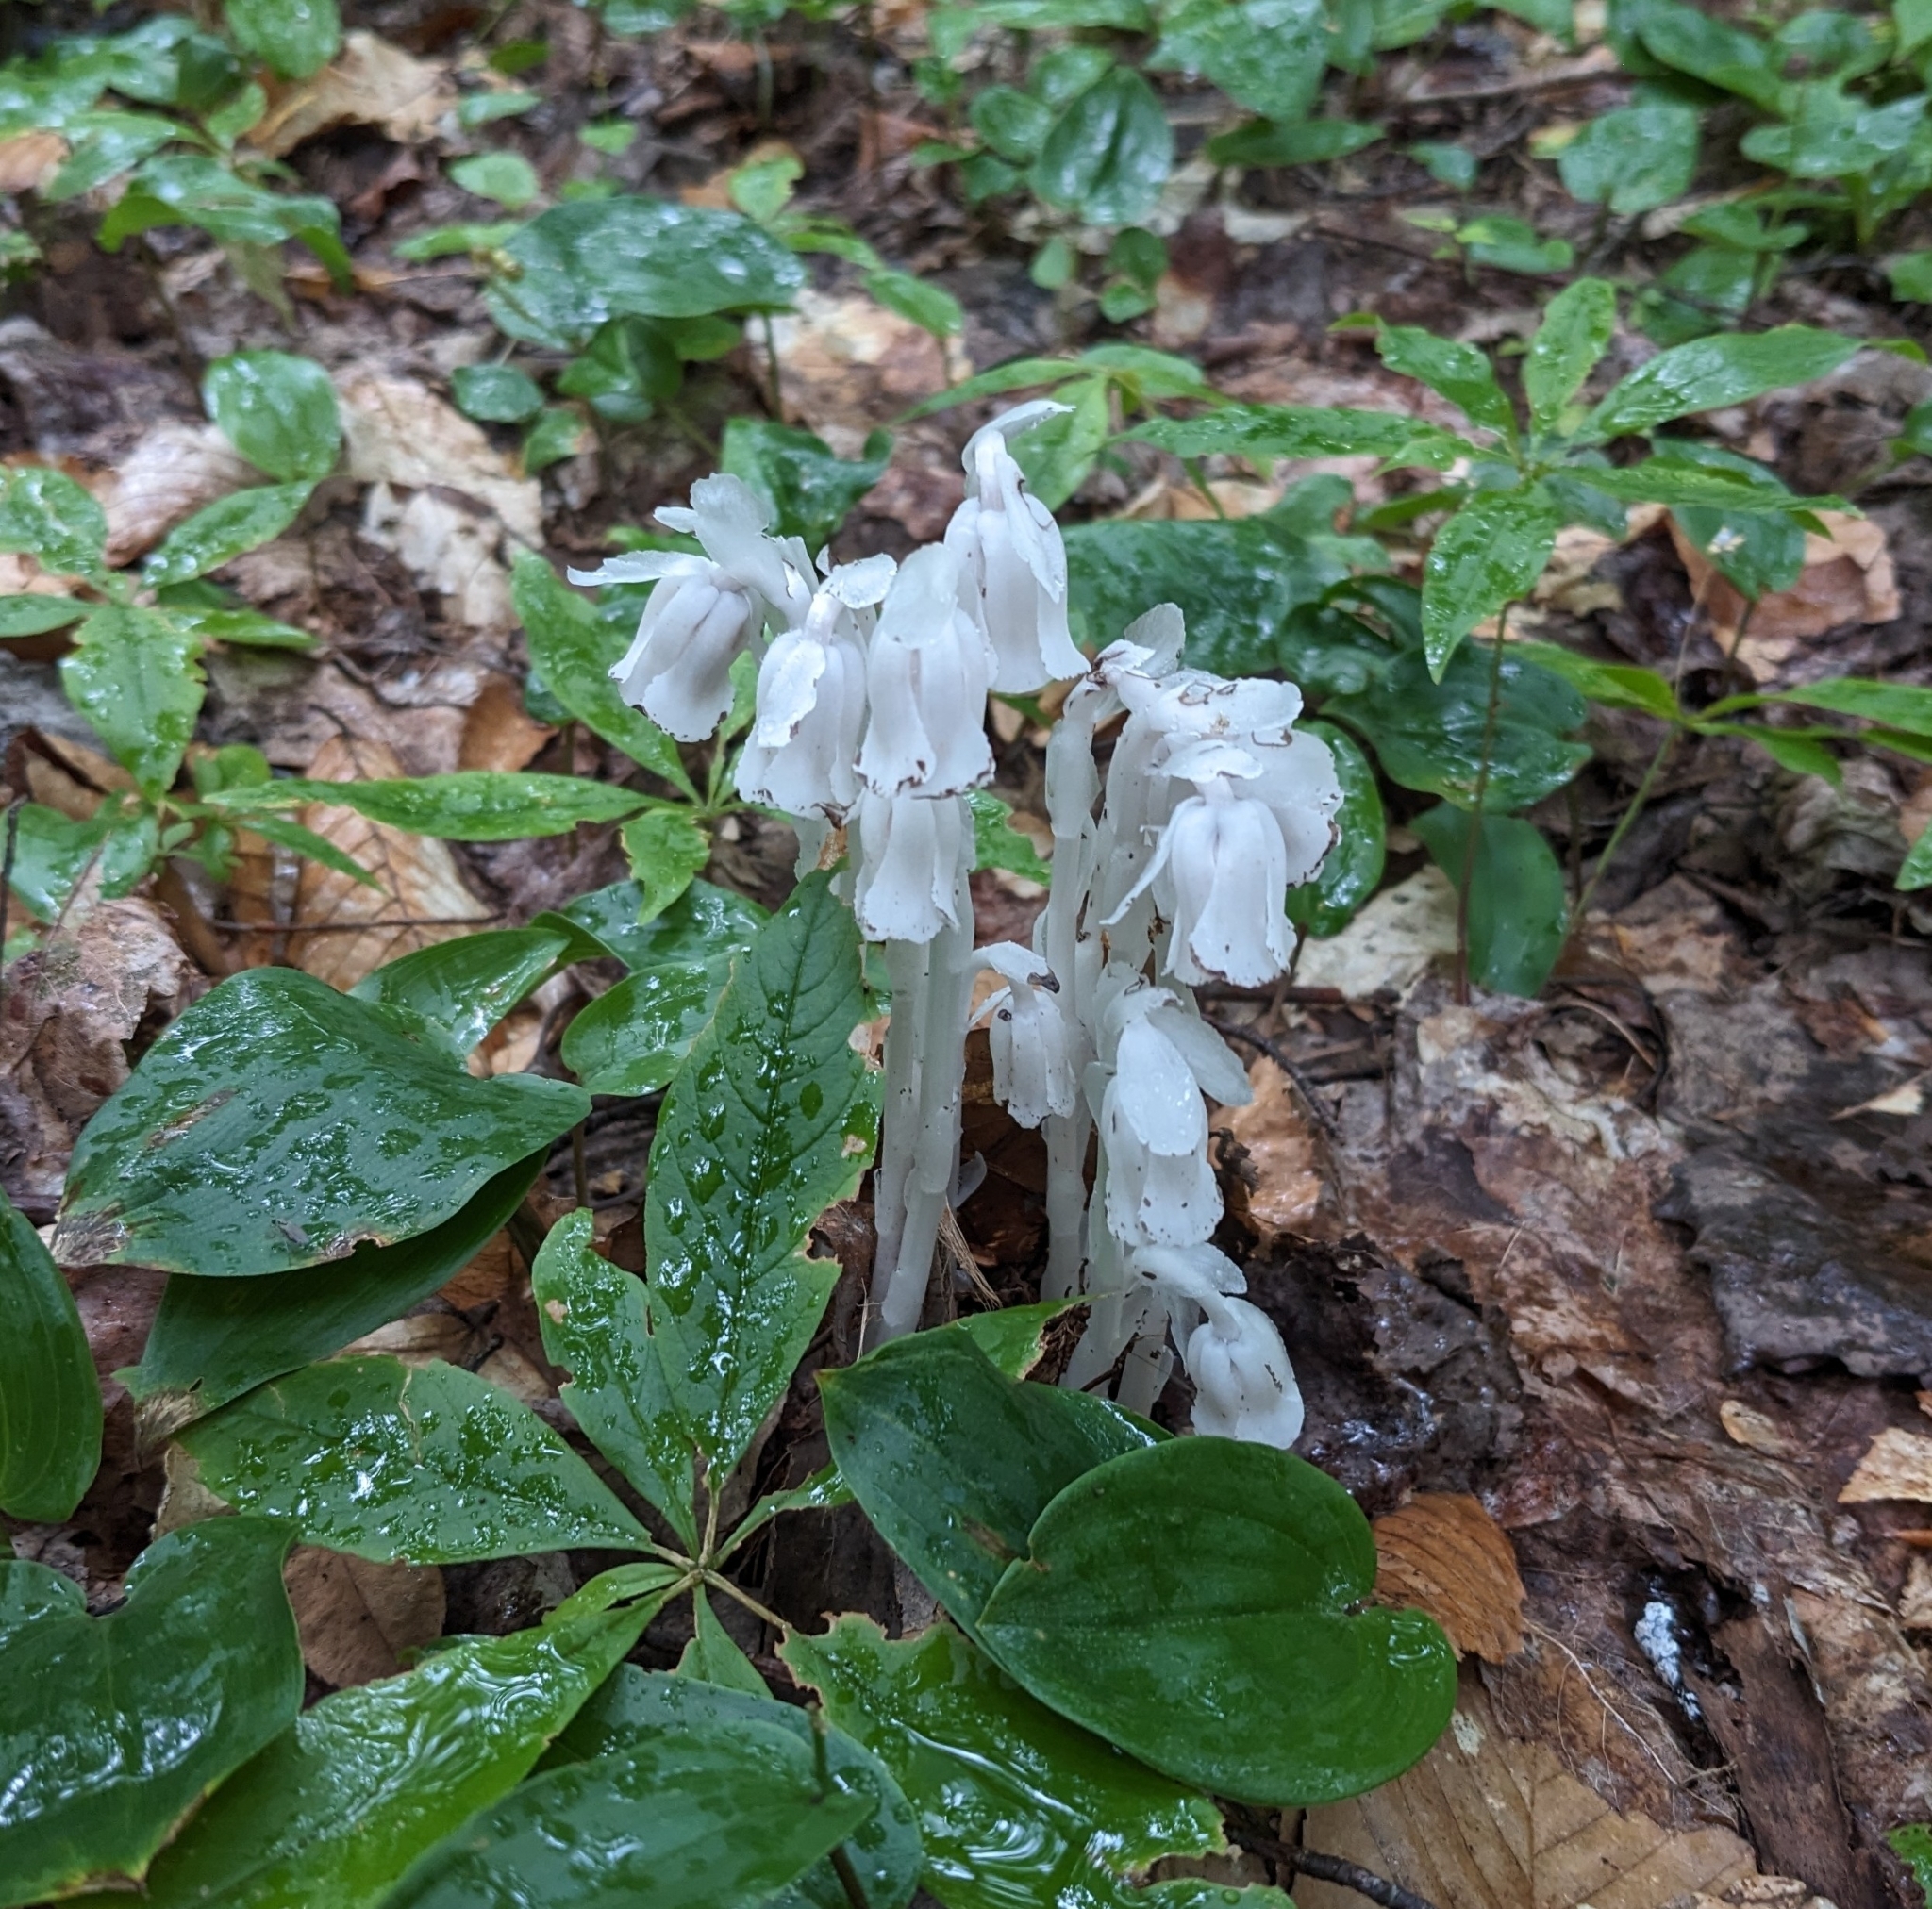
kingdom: Plantae
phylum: Tracheophyta
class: Magnoliopsida
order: Ericales
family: Ericaceae
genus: Monotropa
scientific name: Monotropa uniflora
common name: Convulsion root
